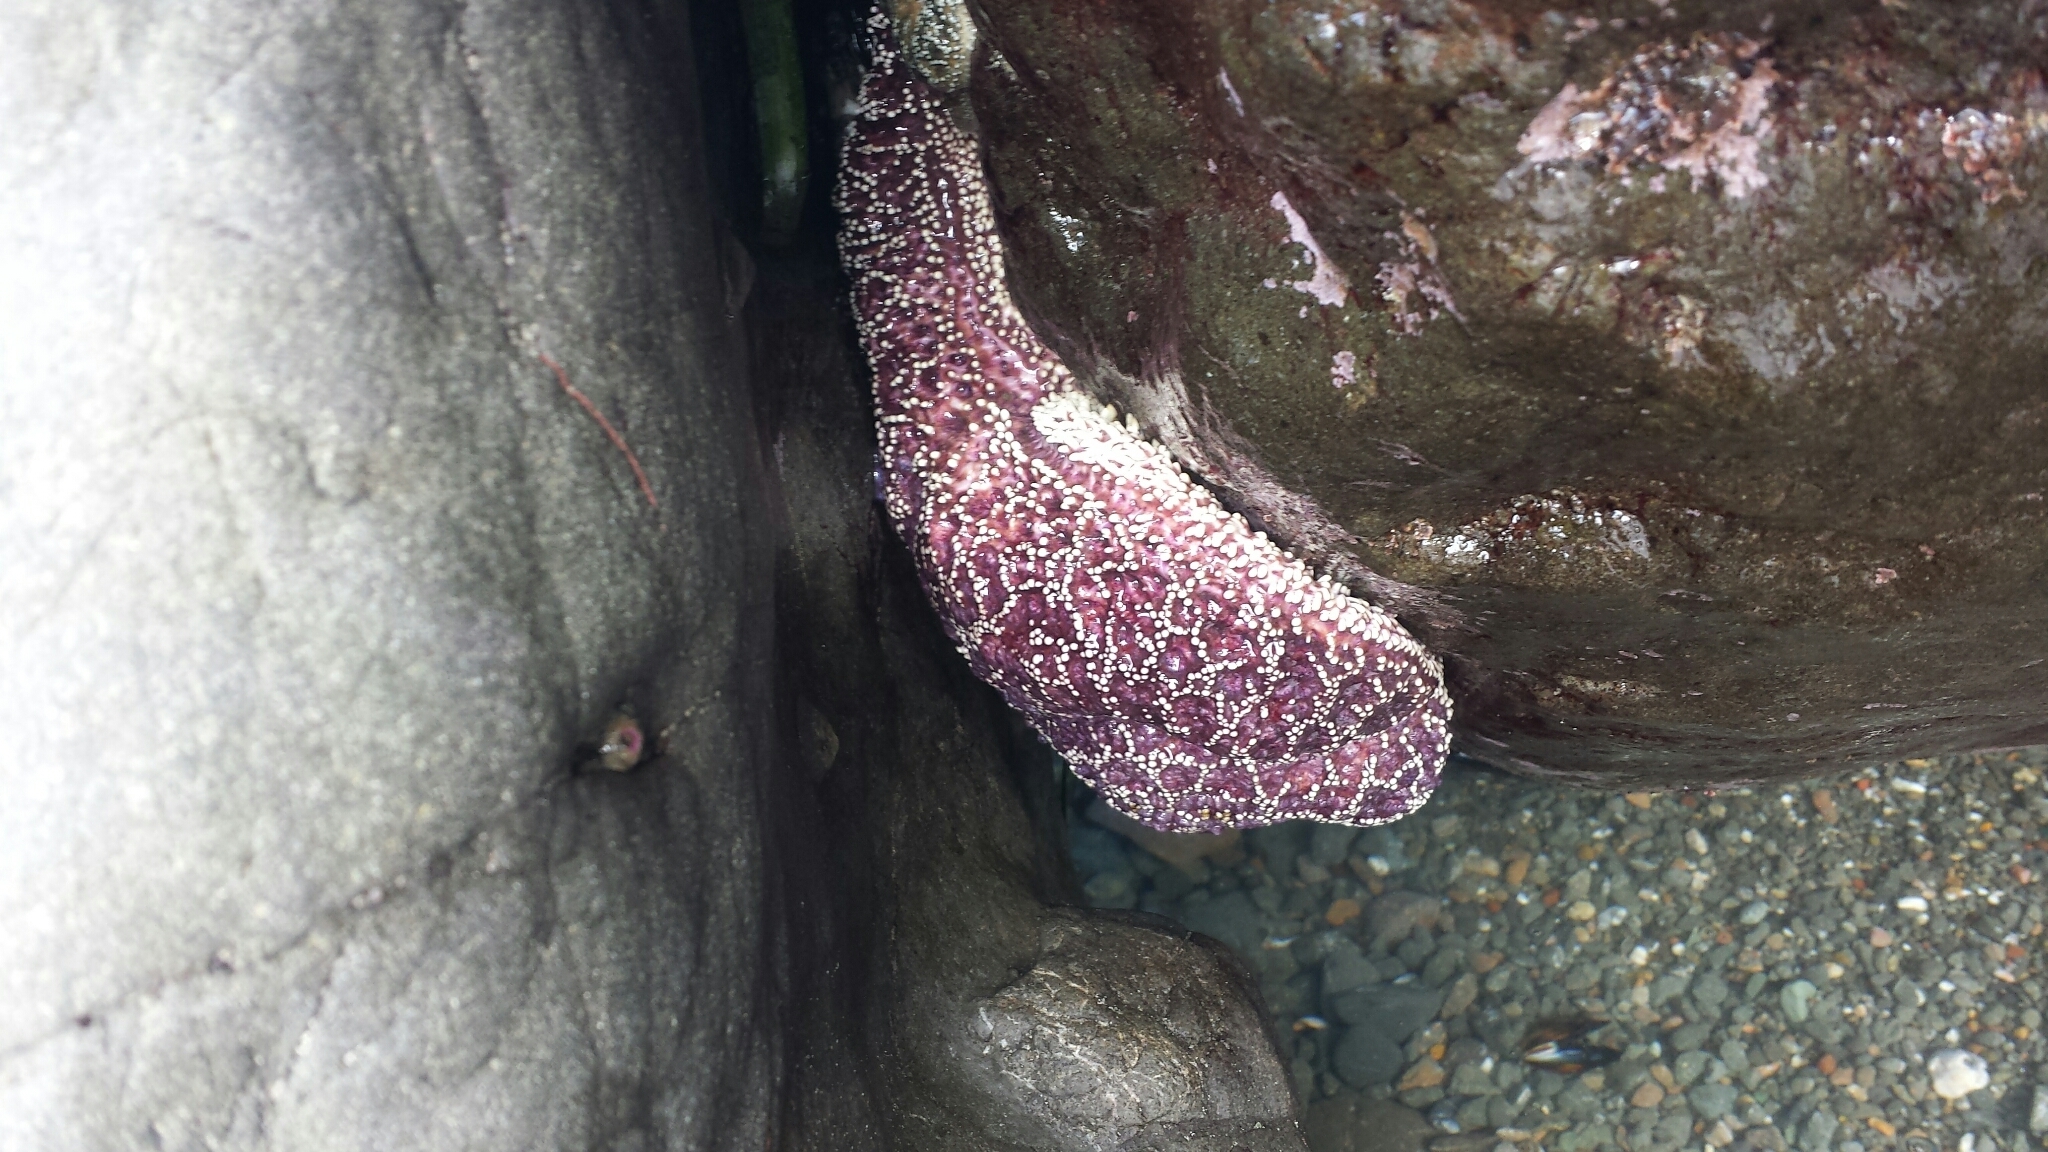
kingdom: Animalia
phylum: Echinodermata
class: Asteroidea
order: Forcipulatida
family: Asteriidae
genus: Pisaster
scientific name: Pisaster ochraceus
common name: Ochre stars
